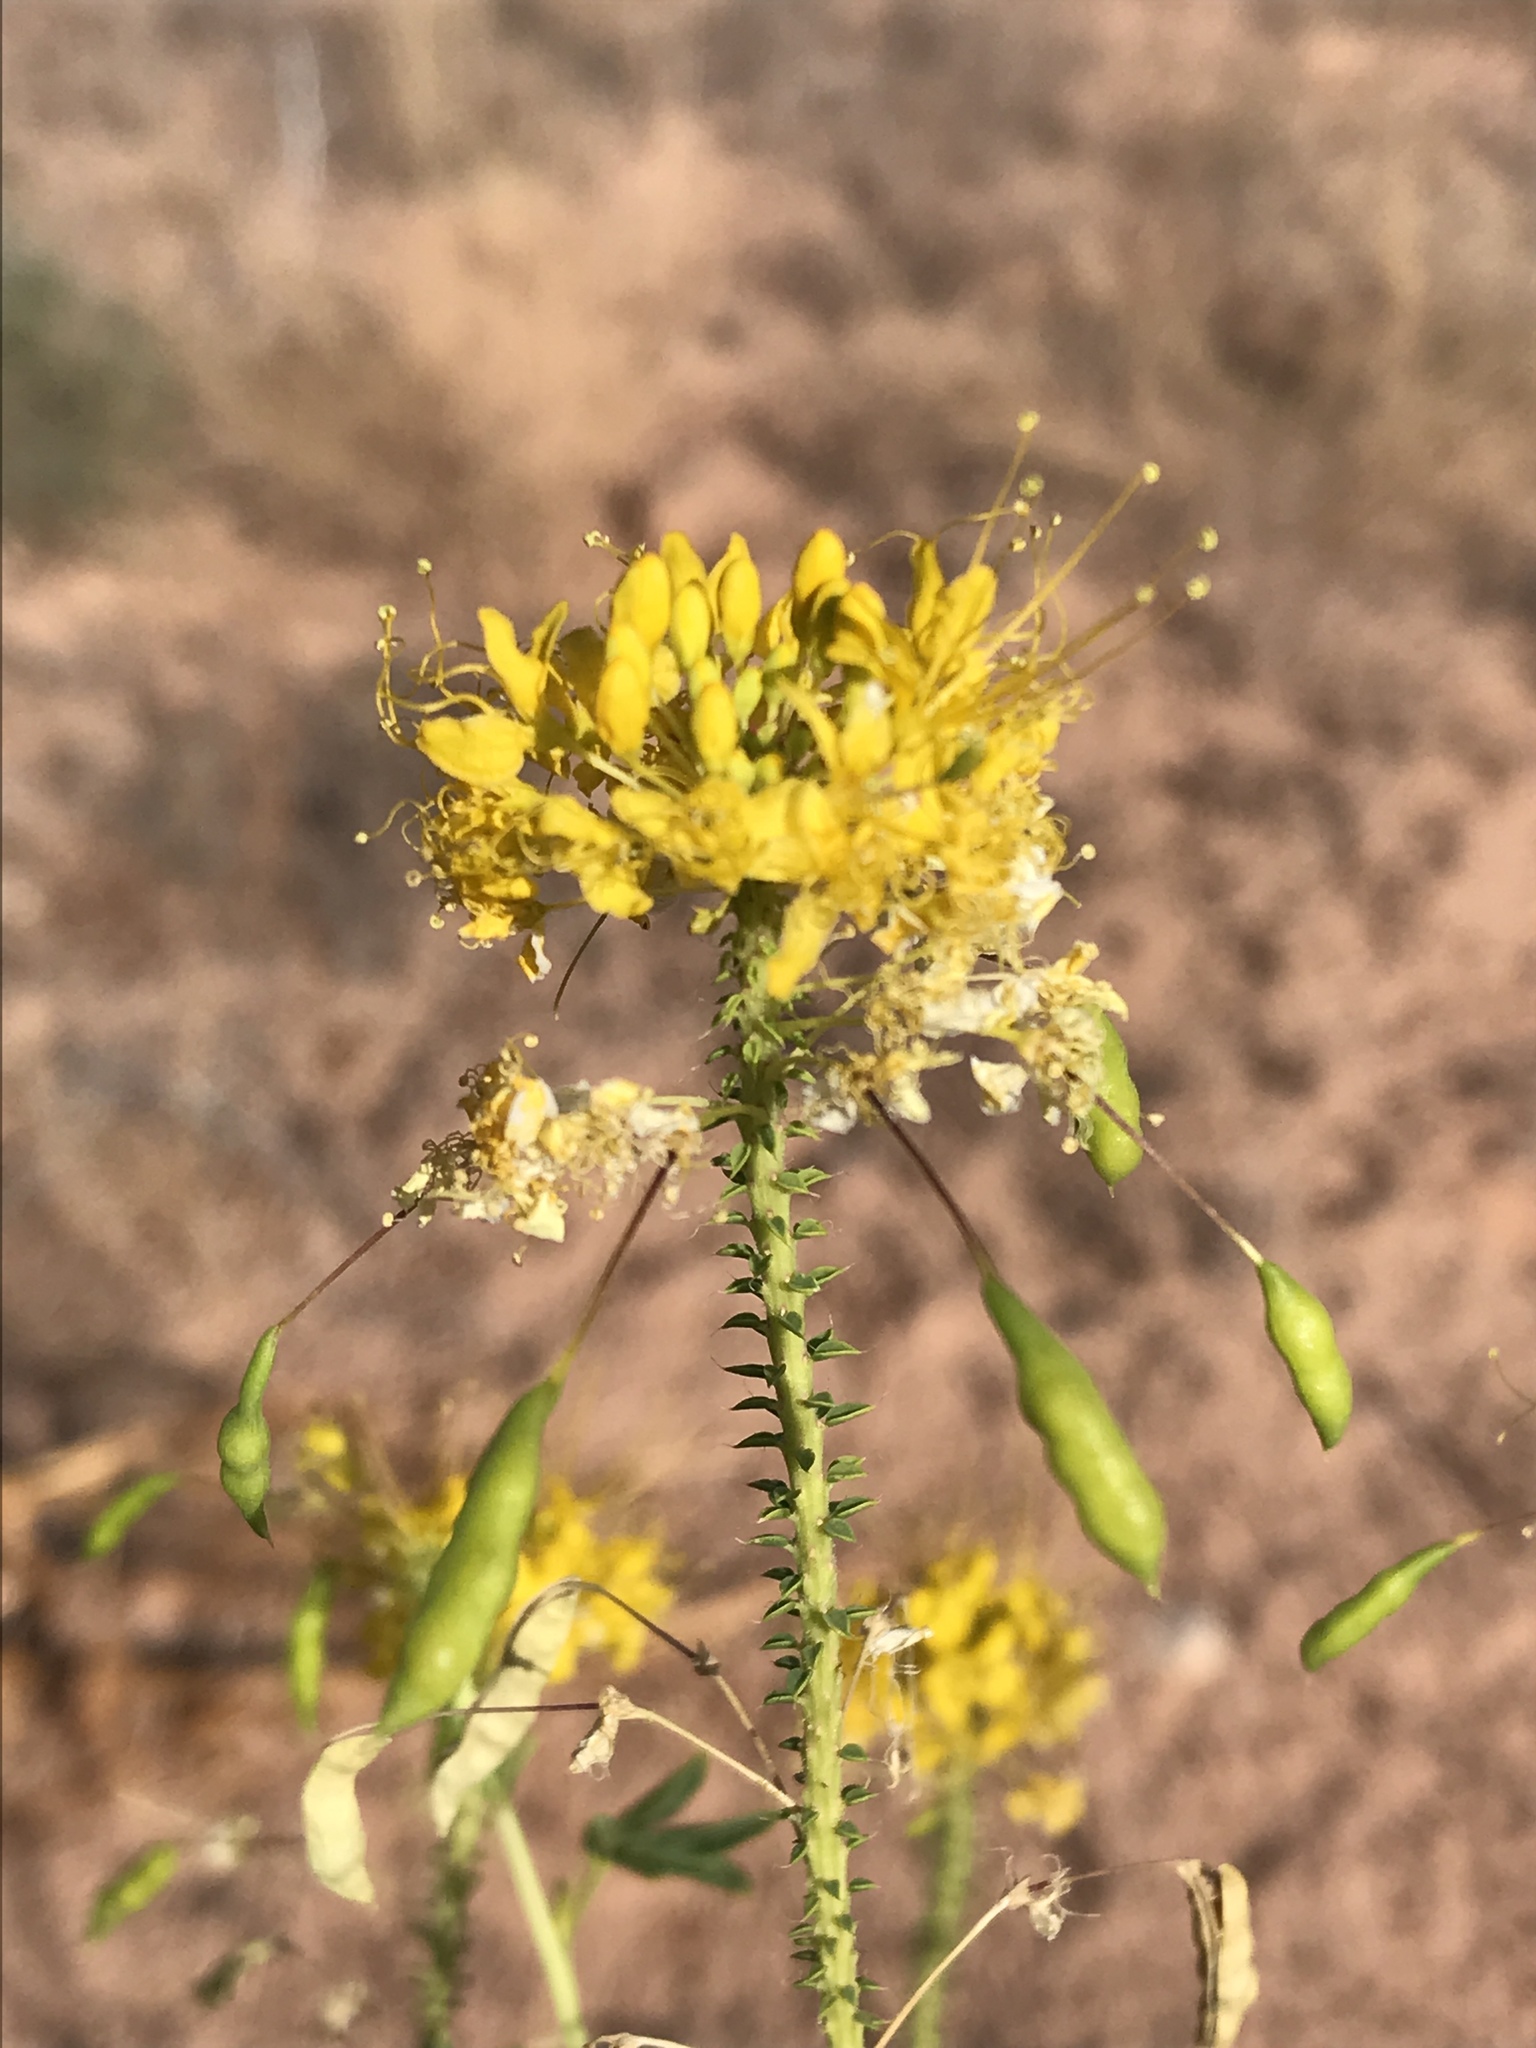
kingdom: Plantae
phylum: Tracheophyta
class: Magnoliopsida
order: Brassicales
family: Cleomaceae
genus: Cleomella
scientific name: Cleomella lutea
